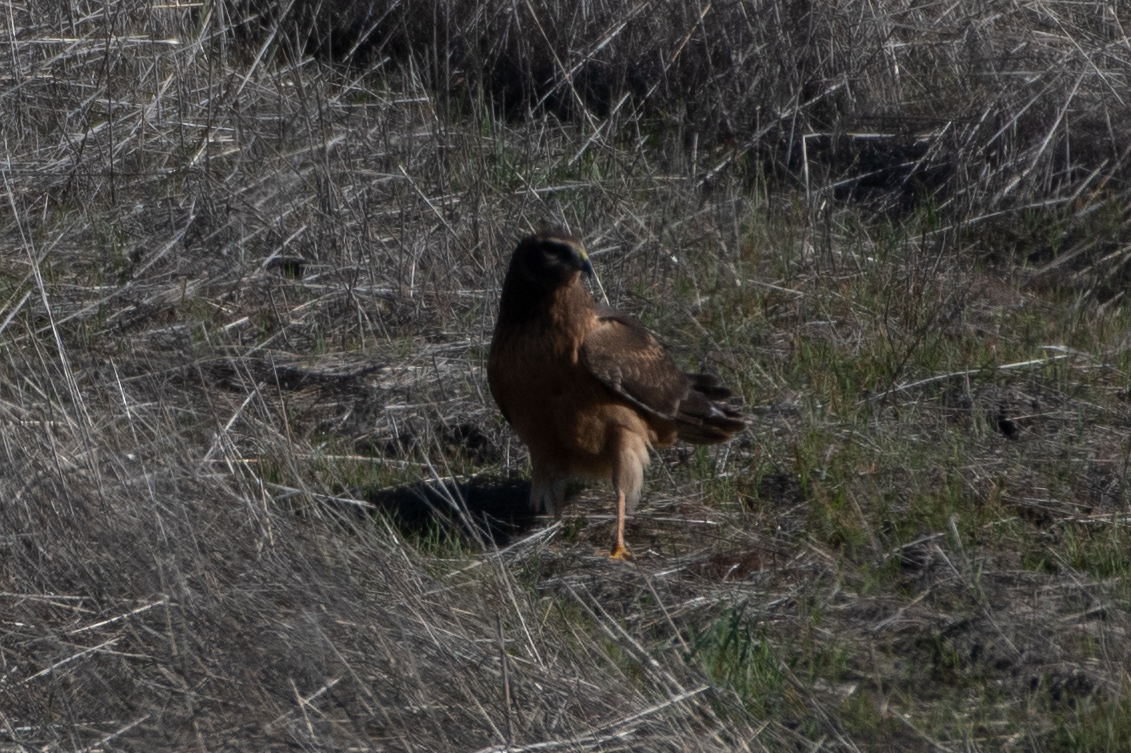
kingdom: Animalia
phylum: Chordata
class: Aves
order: Accipitriformes
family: Accipitridae
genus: Circus
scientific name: Circus cyaneus
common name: Hen harrier
